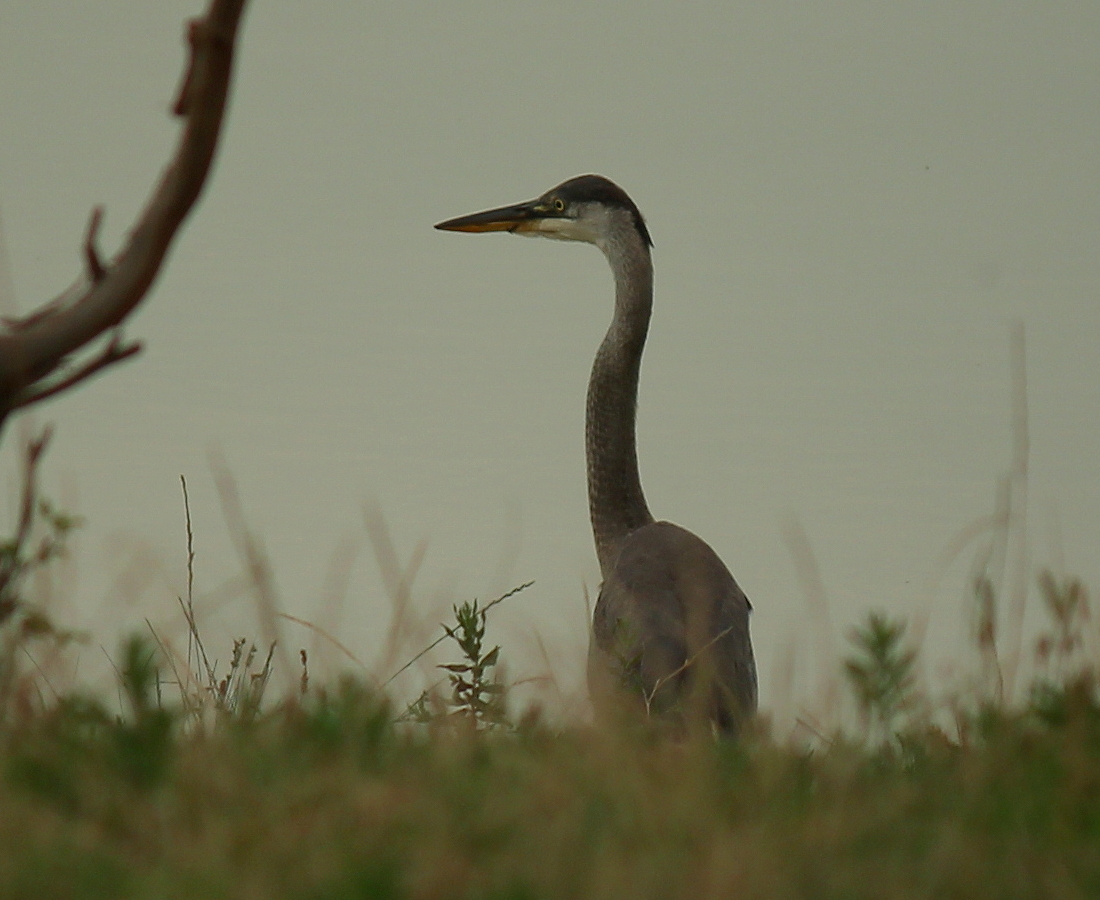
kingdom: Animalia
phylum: Chordata
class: Aves
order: Pelecaniformes
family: Ardeidae
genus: Ardea
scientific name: Ardea herodias
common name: Great blue heron
